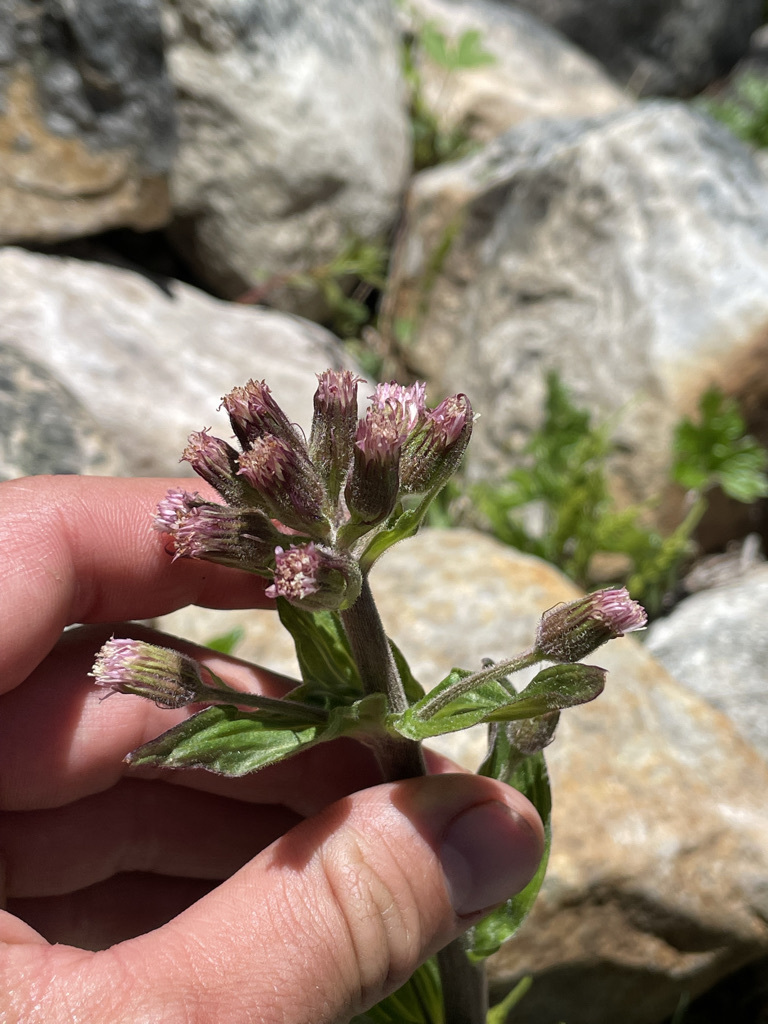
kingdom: Plantae
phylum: Tracheophyta
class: Magnoliopsida
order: Asterales
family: Asteraceae
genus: Petasites
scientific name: Petasites frigidus
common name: Arctic butterbur
